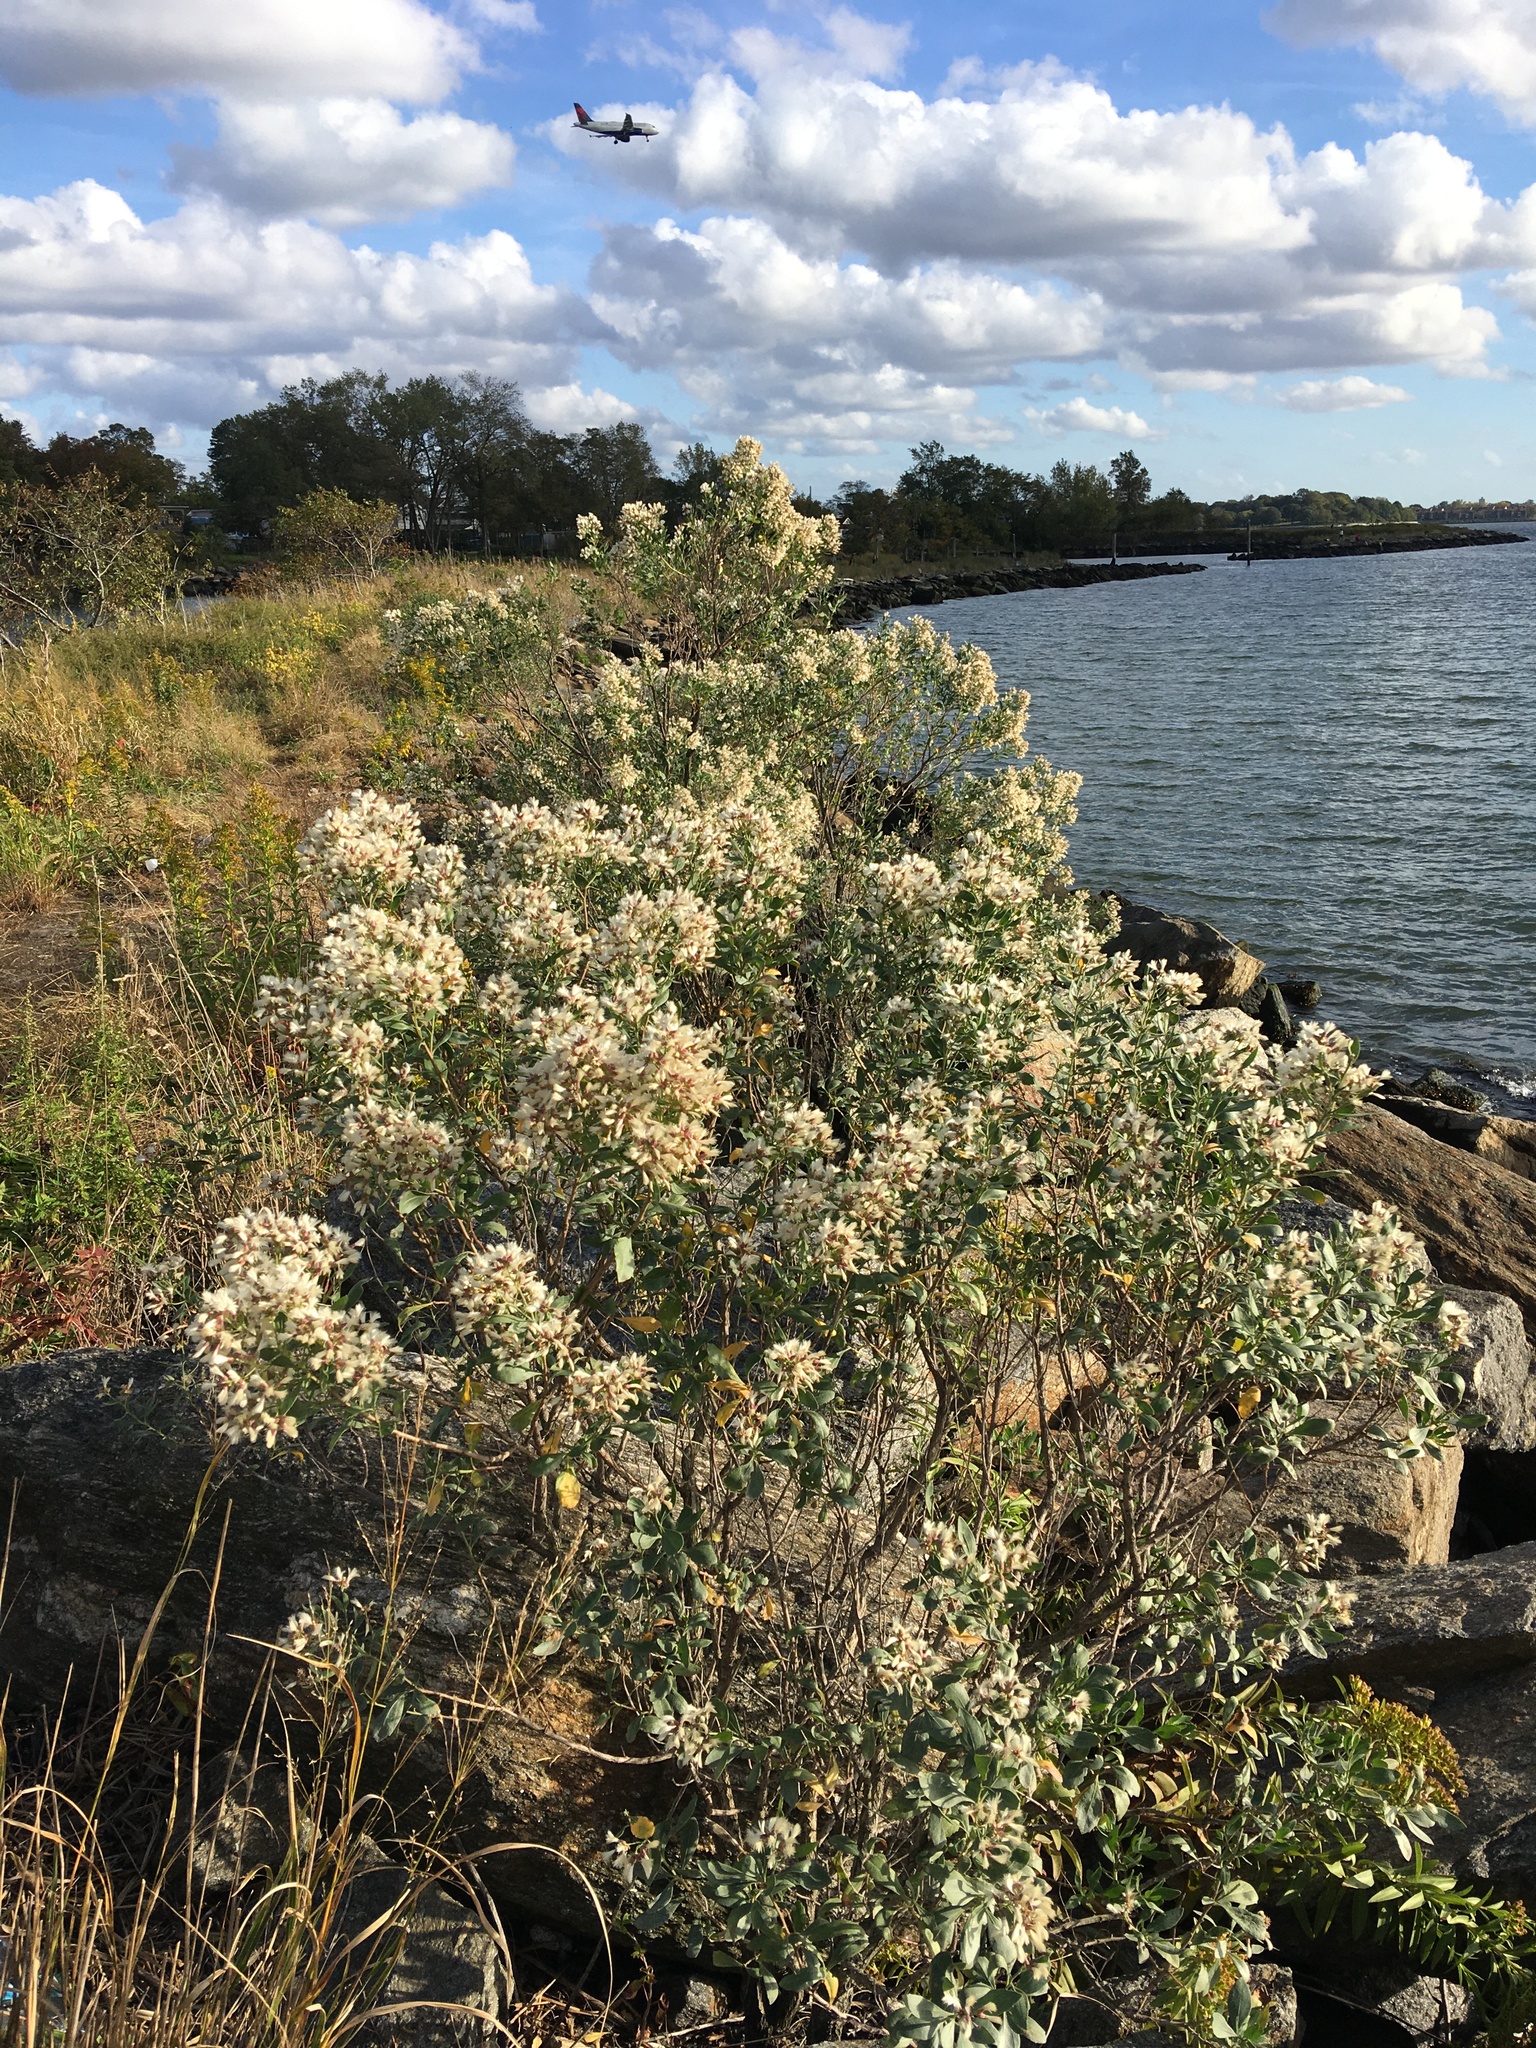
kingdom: Plantae
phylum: Tracheophyta
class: Magnoliopsida
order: Asterales
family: Asteraceae
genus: Baccharis
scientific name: Baccharis halimifolia
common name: Eastern baccharis
